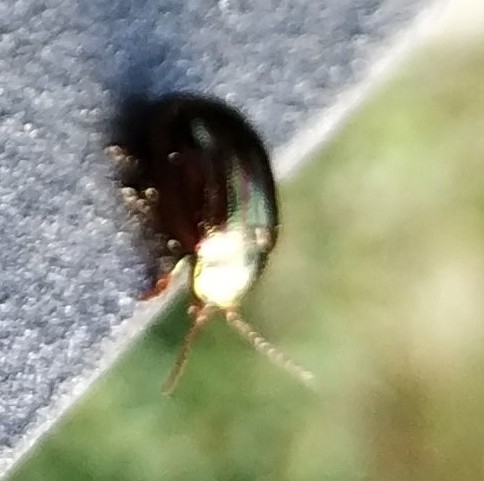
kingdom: Animalia
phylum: Arthropoda
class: Insecta
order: Coleoptera
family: Chrysomelidae
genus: Chrysolina
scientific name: Chrysolina americana
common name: Rosemary beetle
